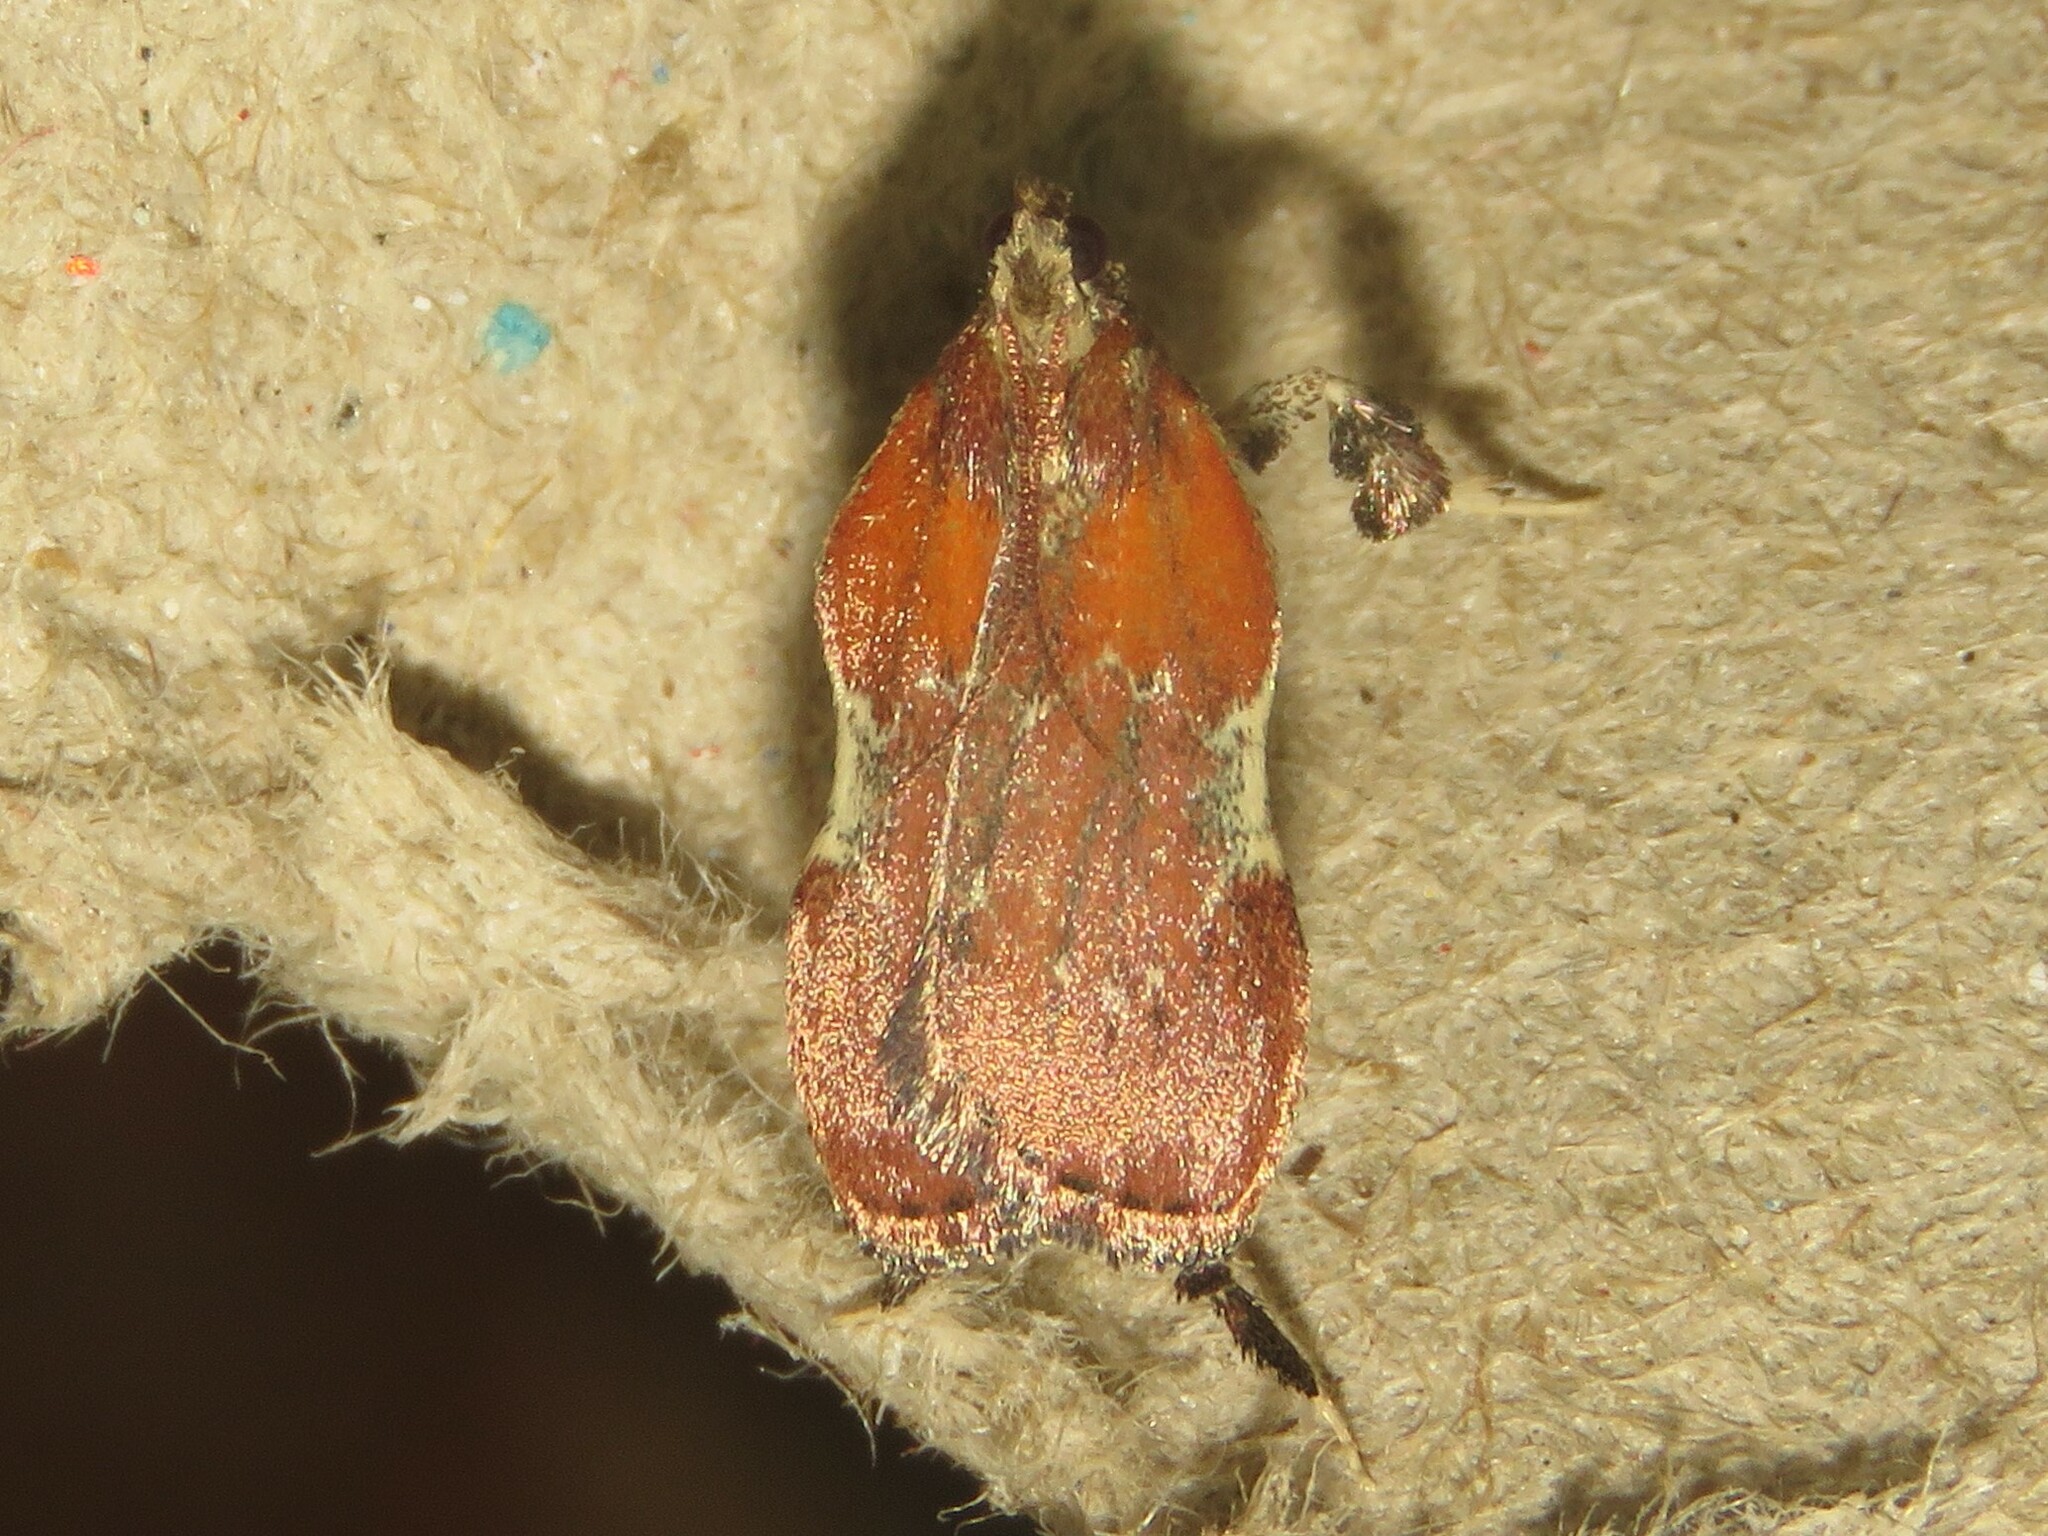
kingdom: Animalia
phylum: Arthropoda
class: Insecta
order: Lepidoptera
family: Pyralidae
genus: Galasa
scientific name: Galasa nigrinodis
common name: Boxwood leaftier moth
